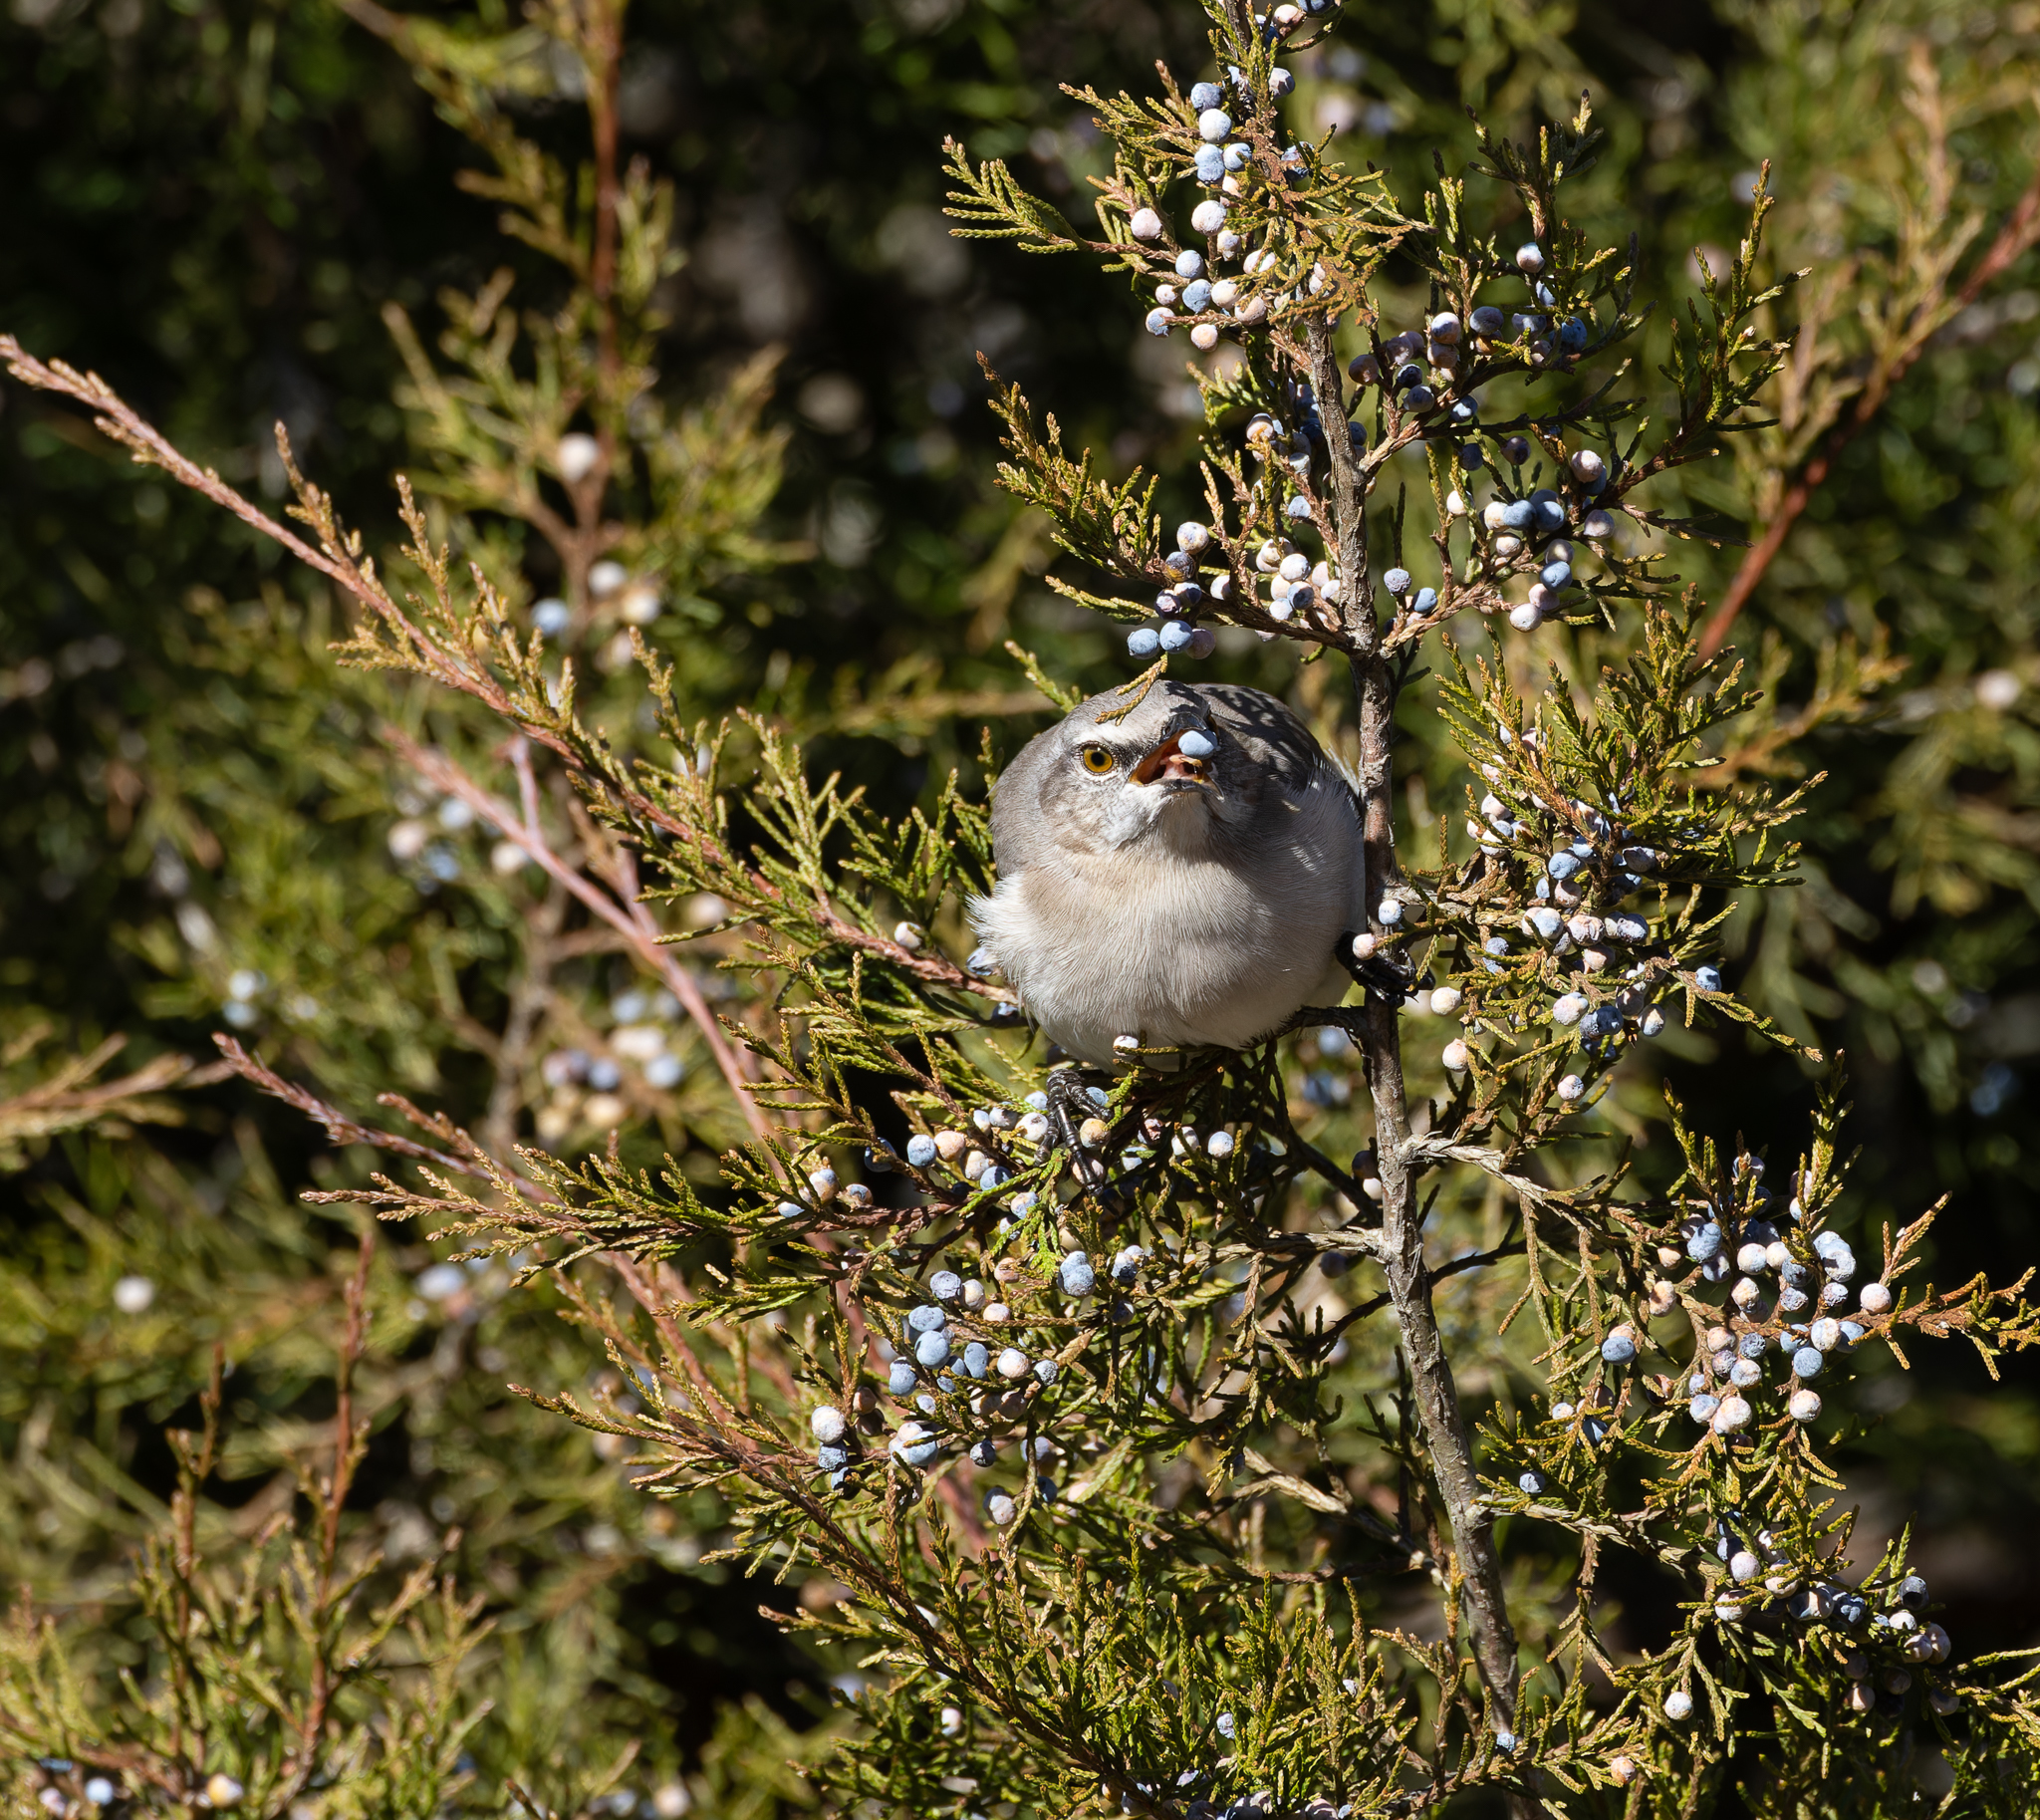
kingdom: Animalia
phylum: Chordata
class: Aves
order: Passeriformes
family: Mimidae
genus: Mimus
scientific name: Mimus polyglottos
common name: Northern mockingbird
